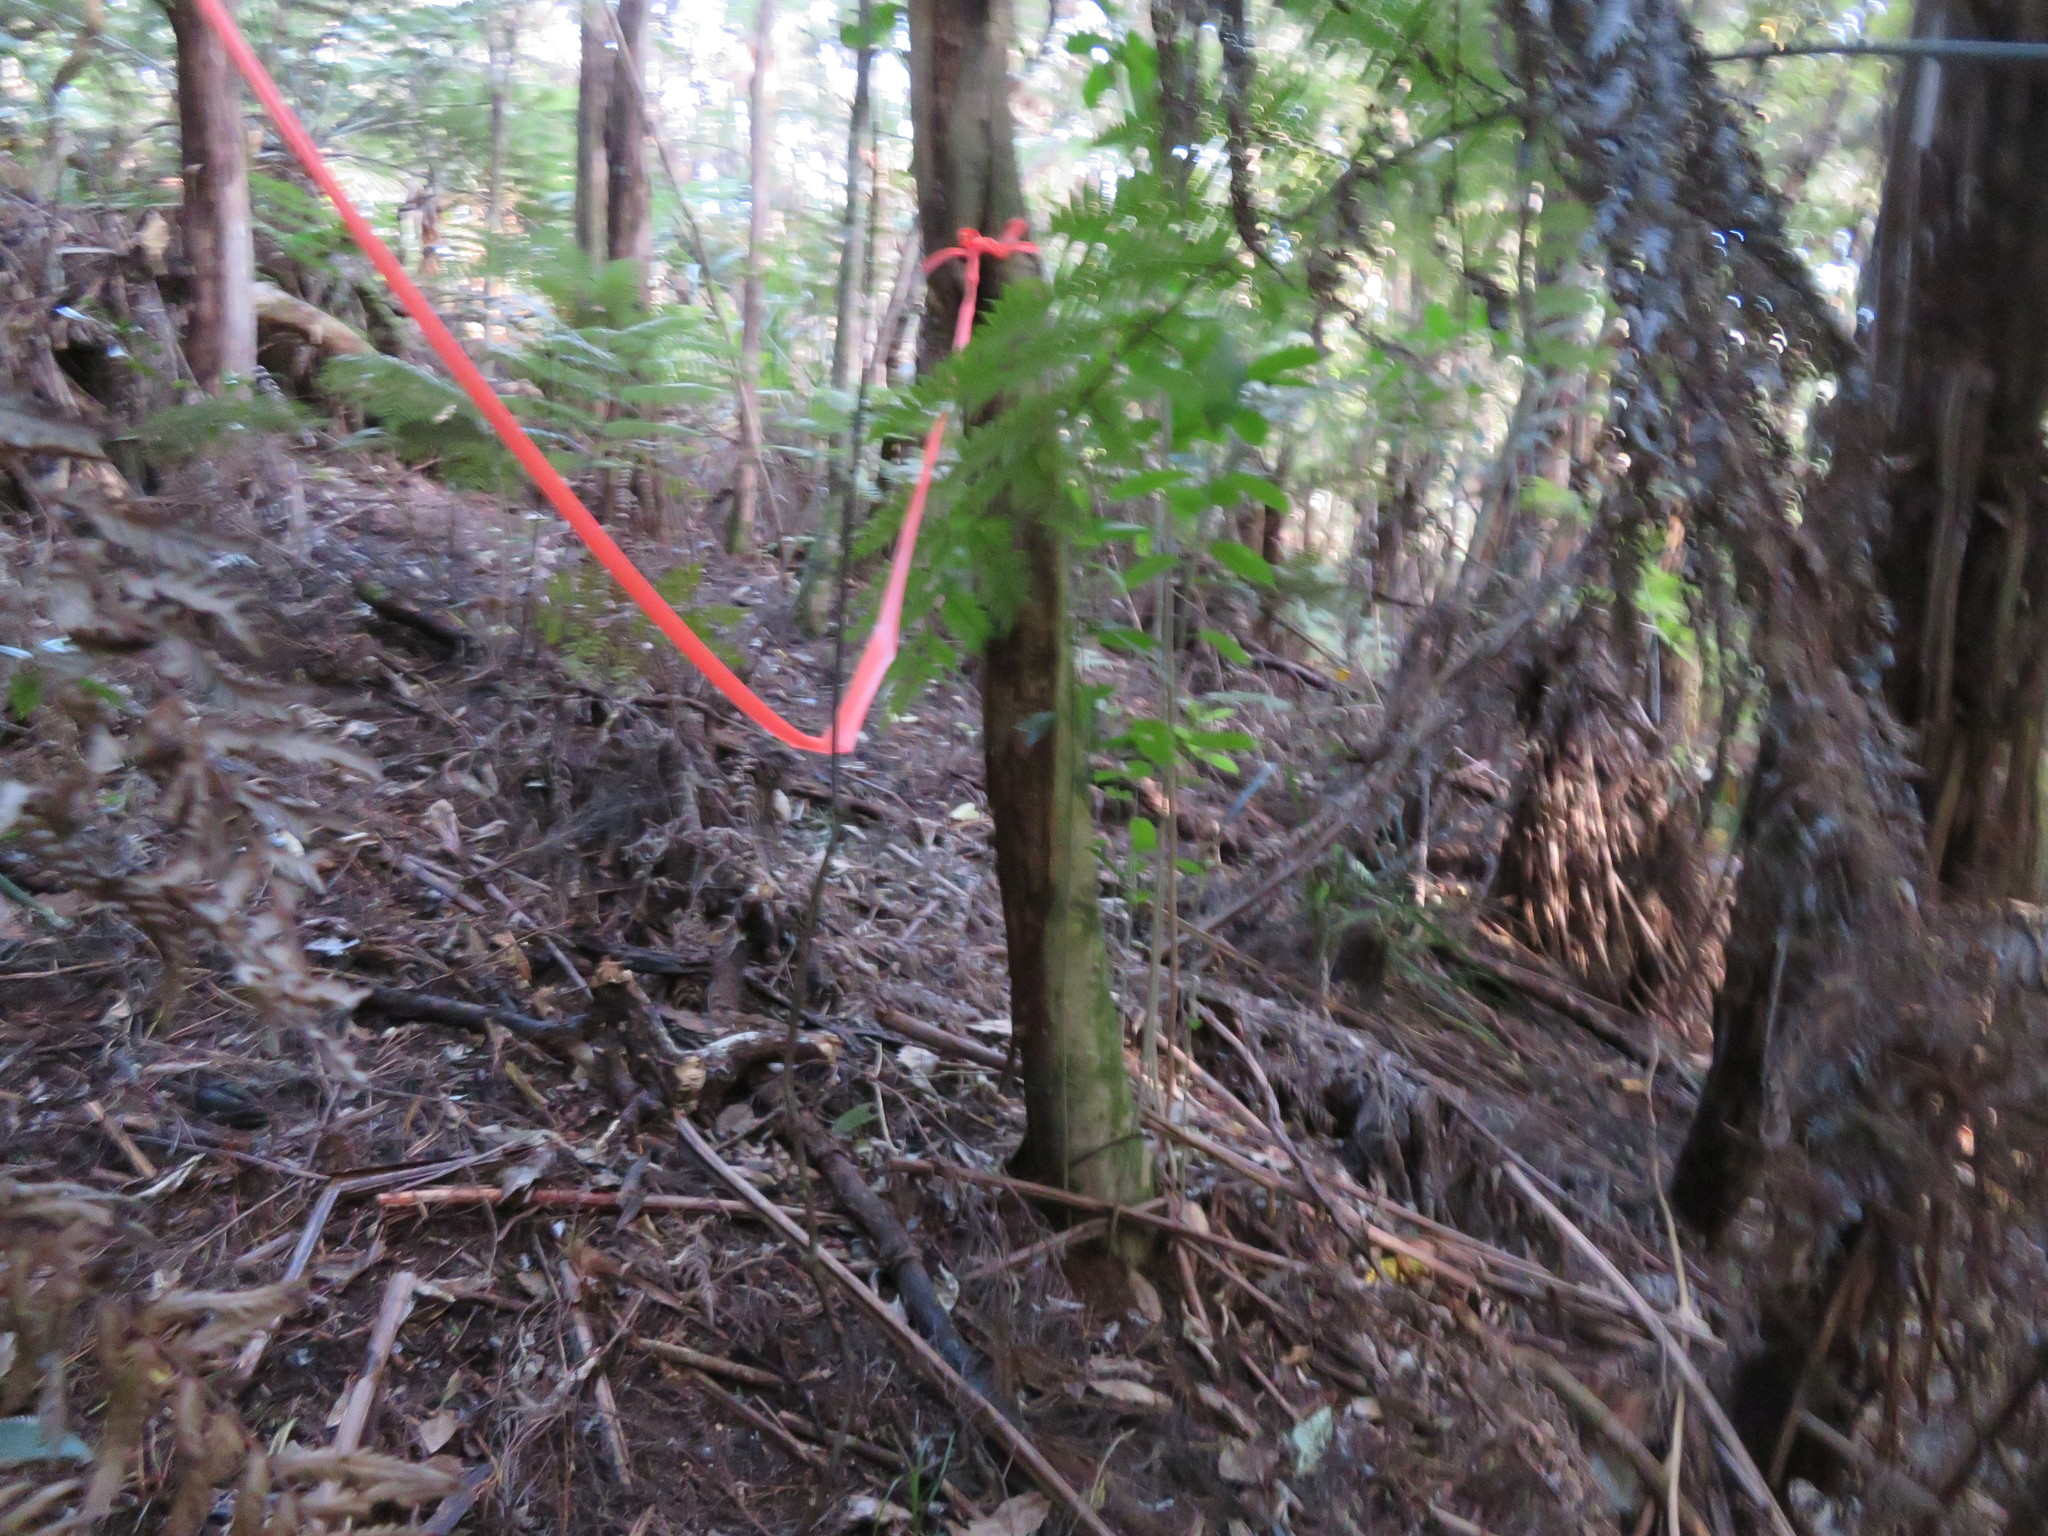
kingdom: Plantae
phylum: Tracheophyta
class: Magnoliopsida
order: Malpighiales
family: Violaceae
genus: Melicytus
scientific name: Melicytus ramiflorus
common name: Mahoe
